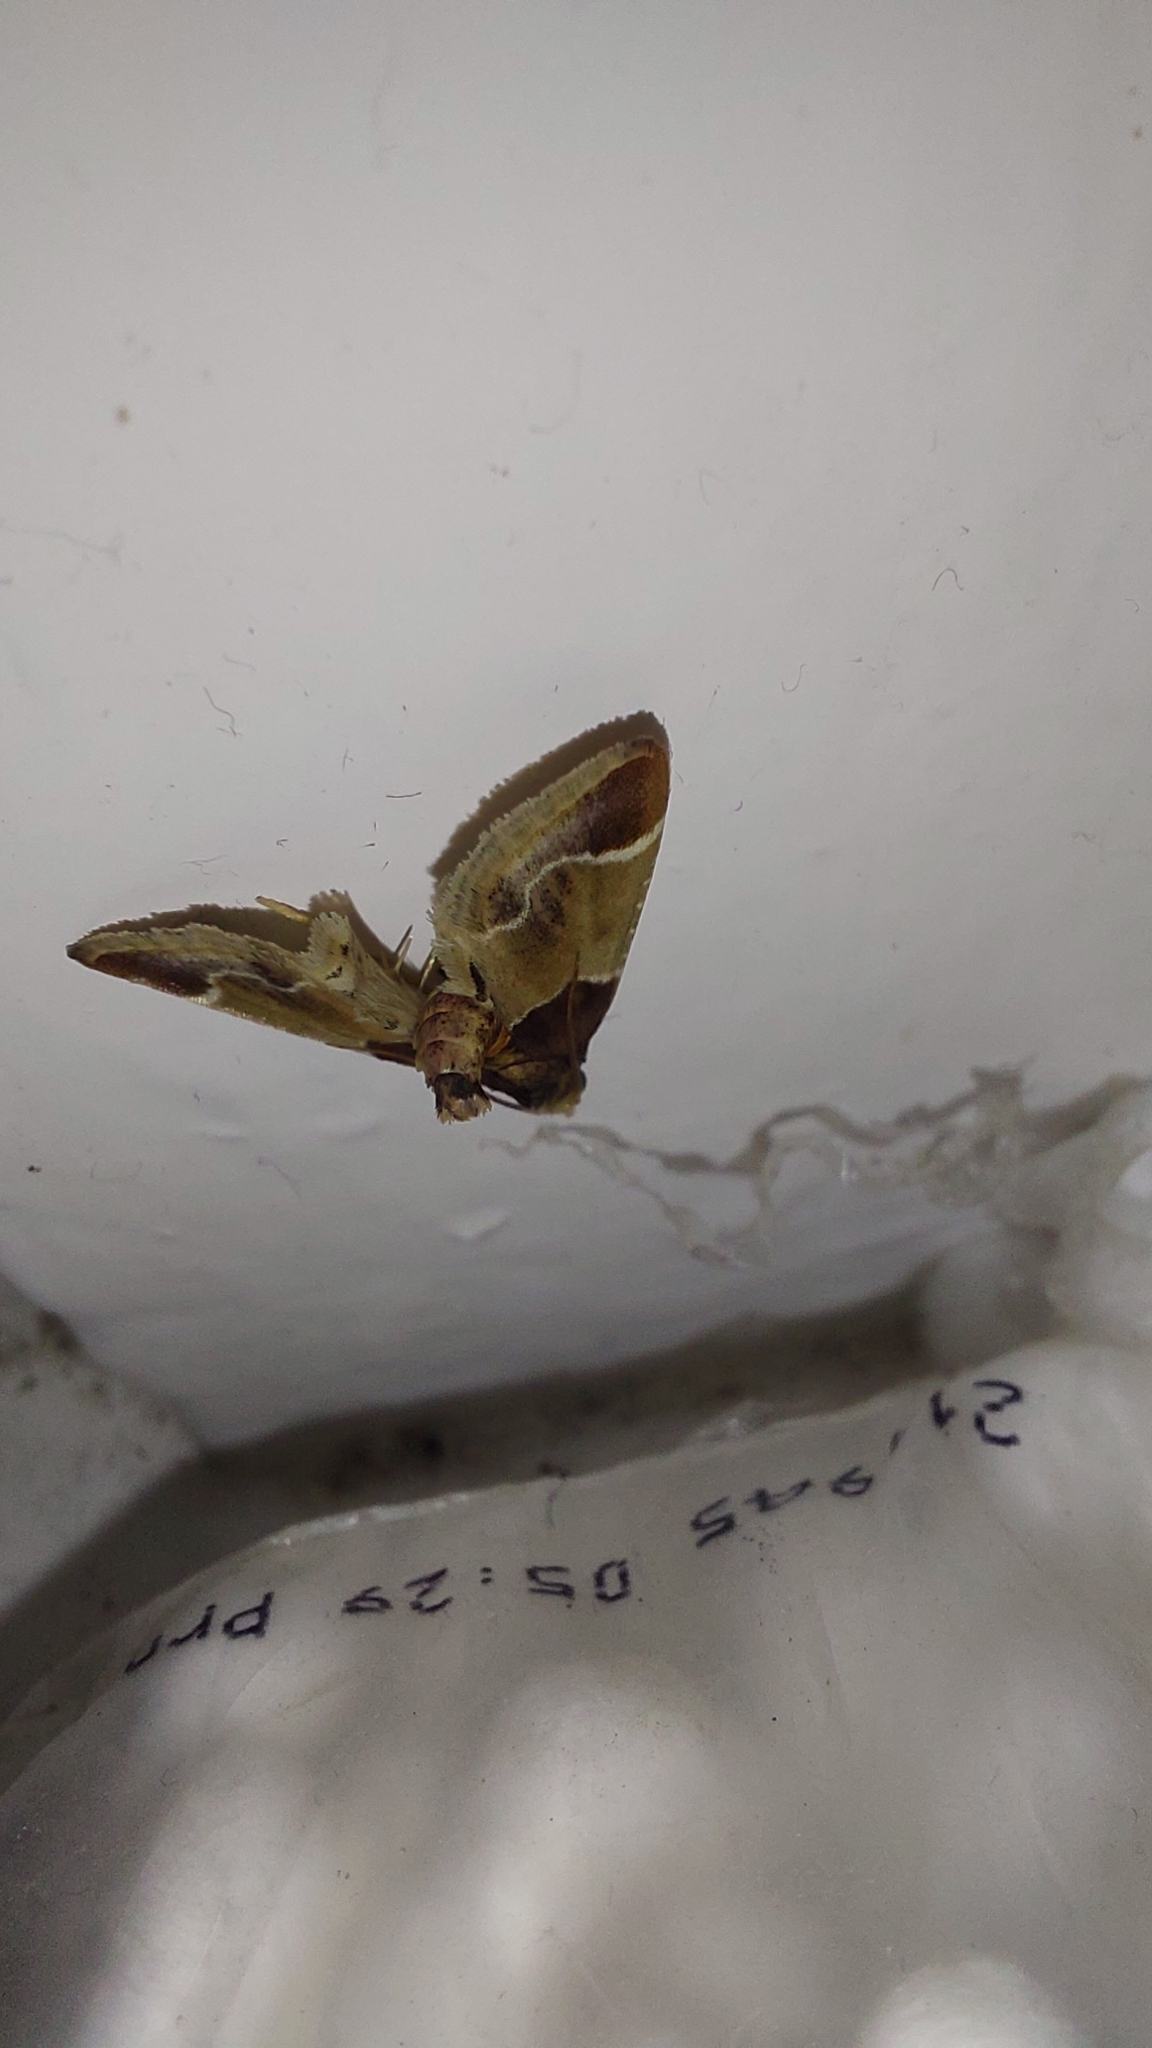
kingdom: Animalia
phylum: Arthropoda
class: Insecta
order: Lepidoptera
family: Pyralidae
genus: Pyralis
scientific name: Pyralis farinalis
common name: Meal moth
